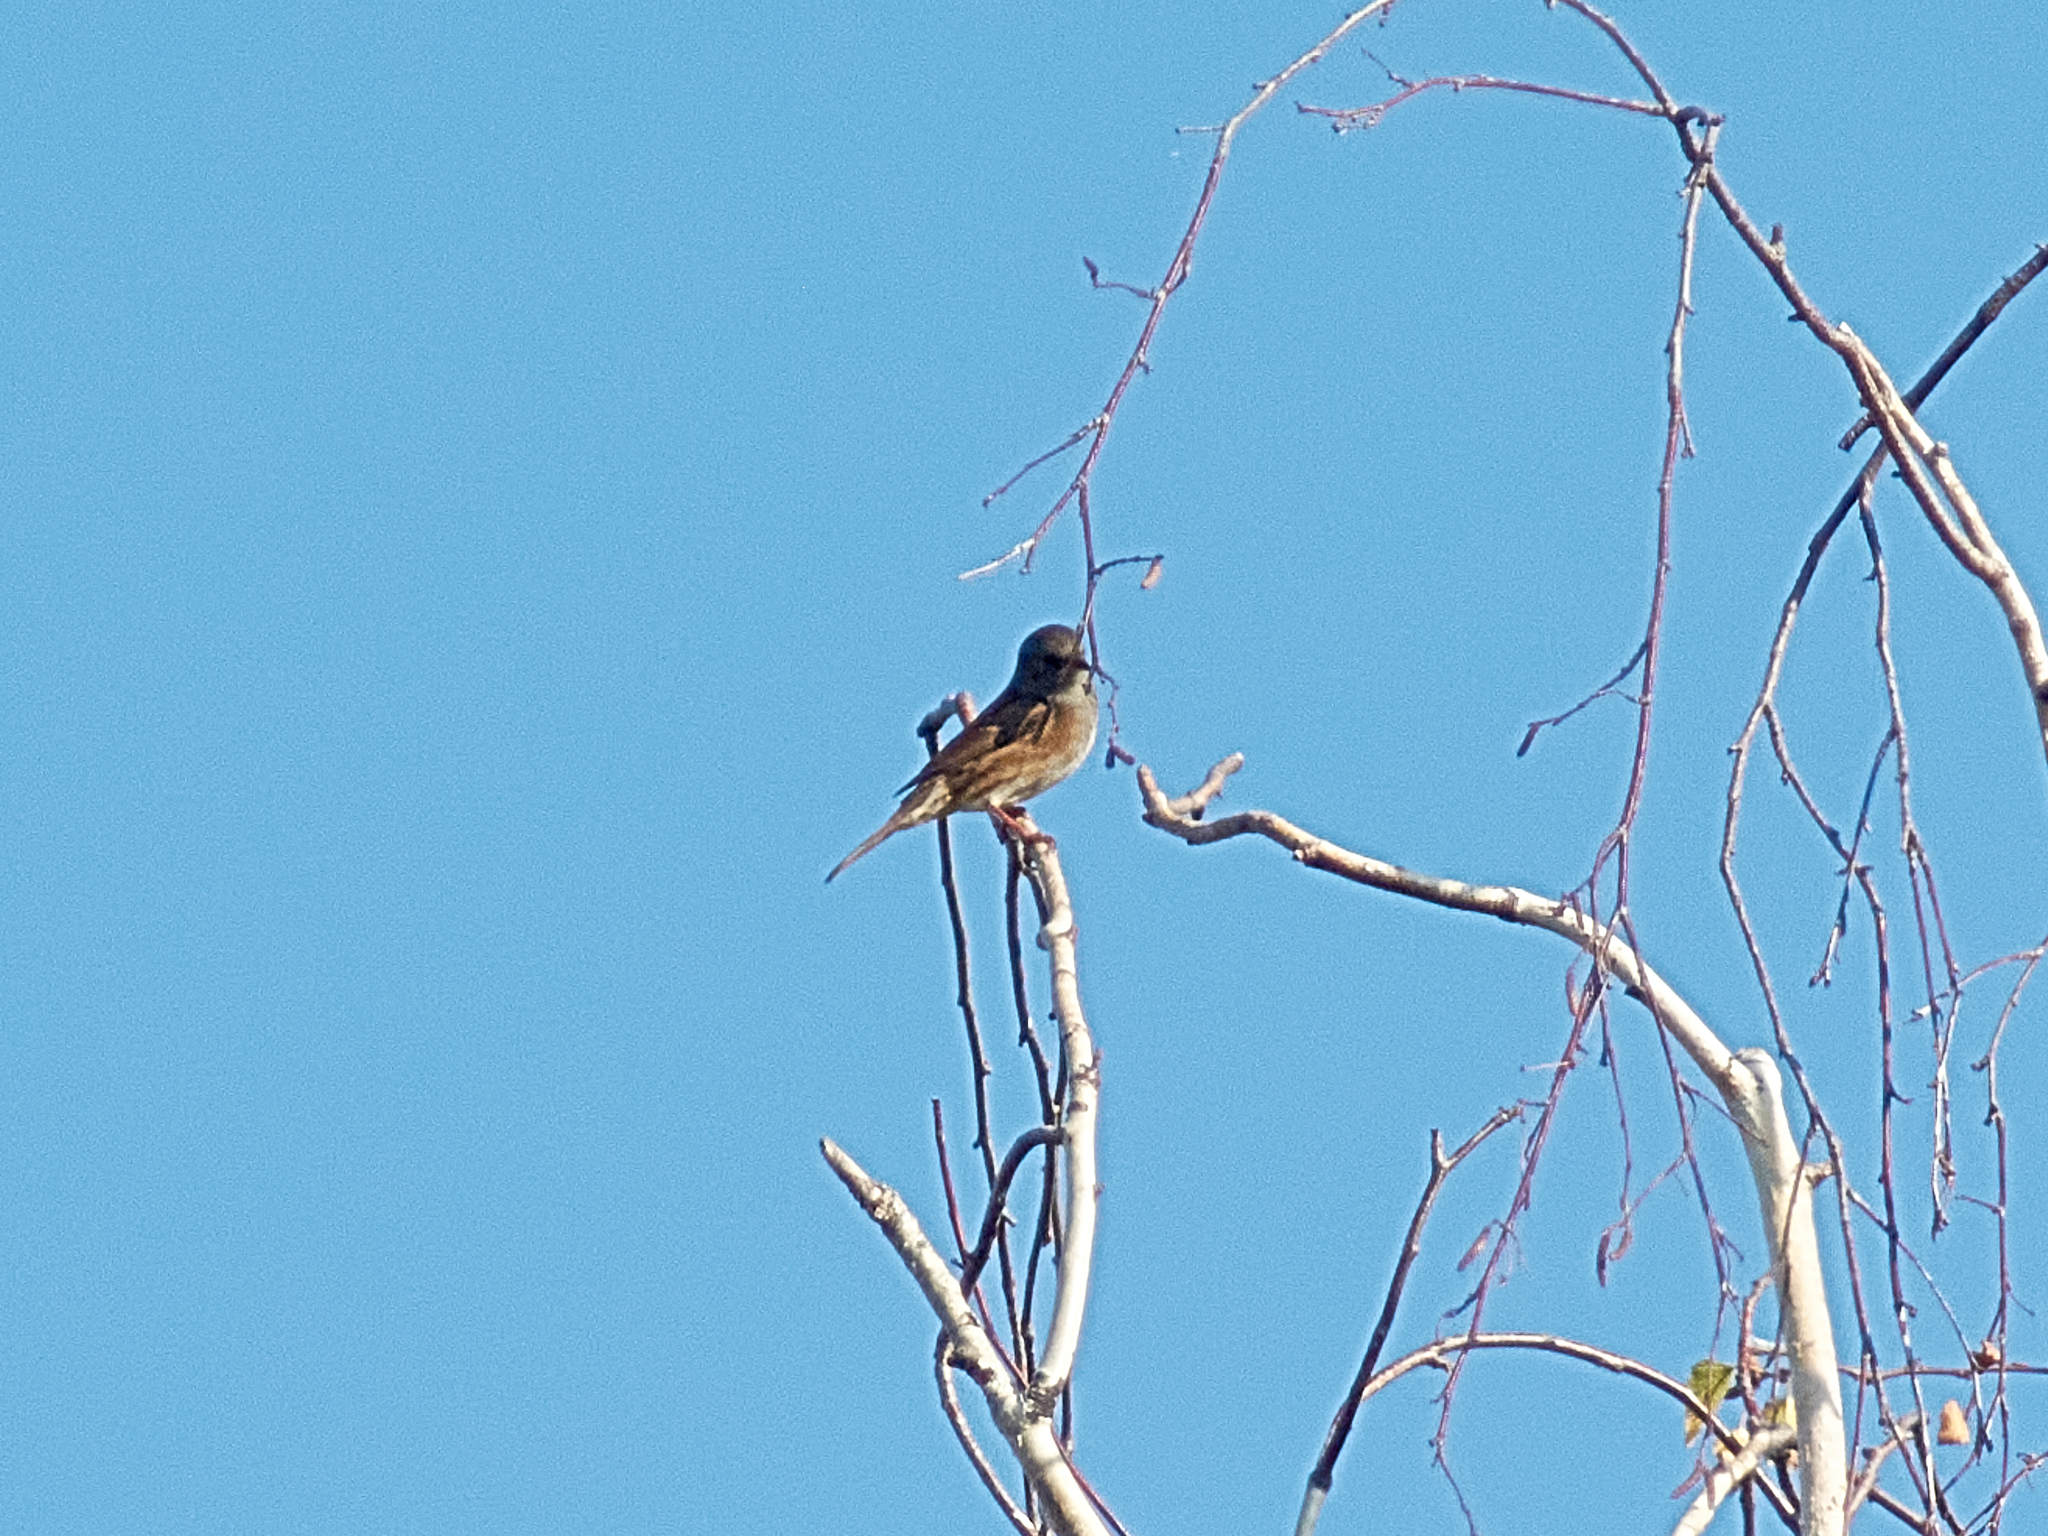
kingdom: Animalia
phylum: Chordata
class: Aves
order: Passeriformes
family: Prunellidae
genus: Prunella
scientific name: Prunella modularis
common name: Dunnock
